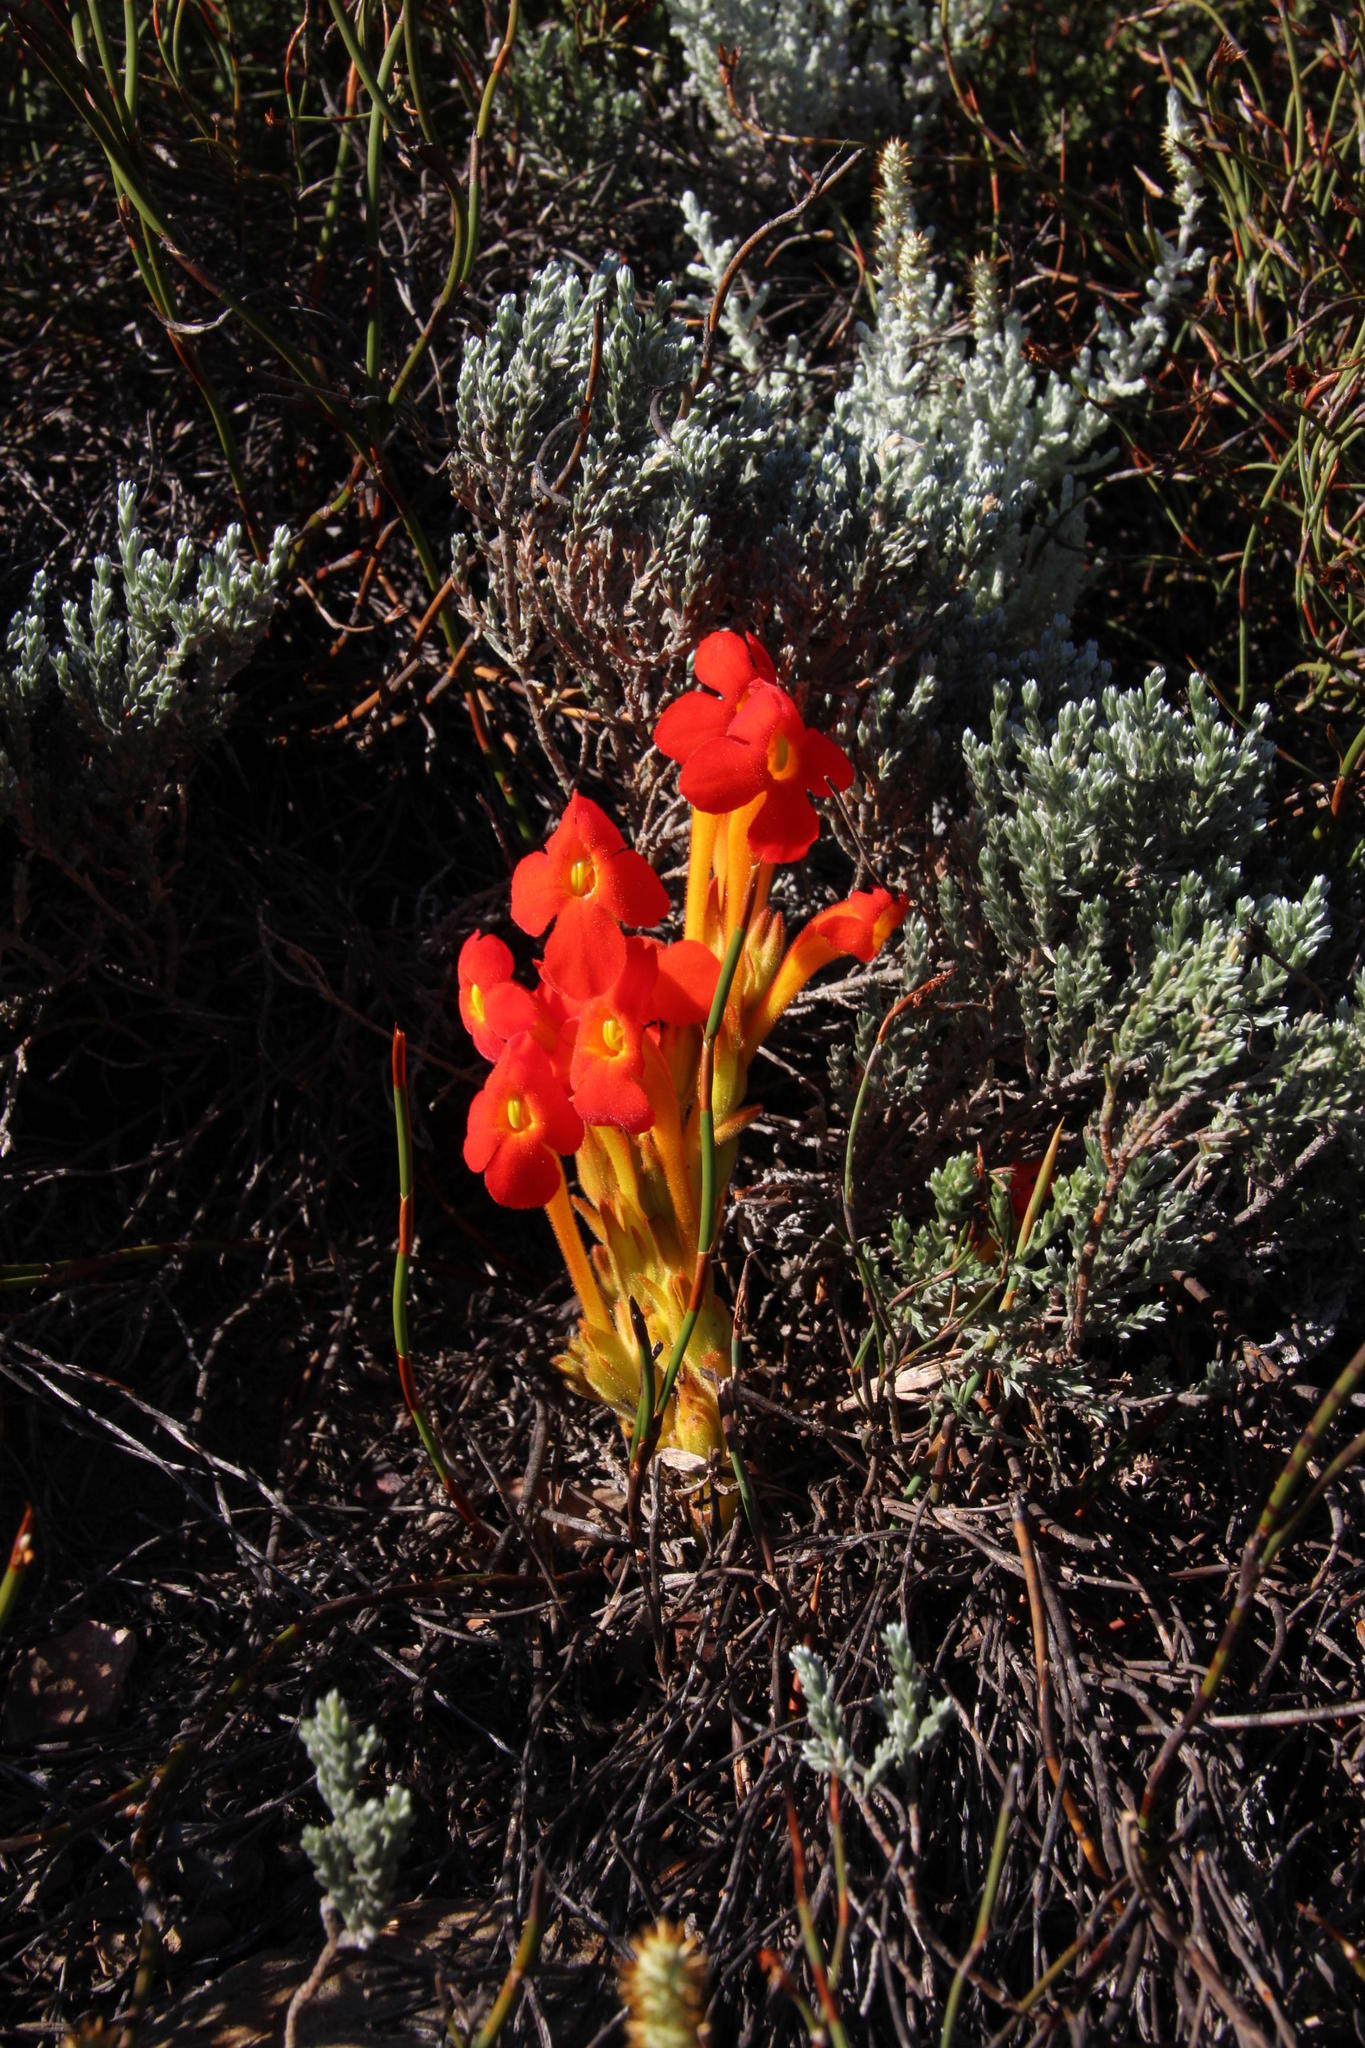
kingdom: Plantae
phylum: Tracheophyta
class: Magnoliopsida
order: Lamiales
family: Orobanchaceae
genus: Harveya
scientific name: Harveya bodkinii
